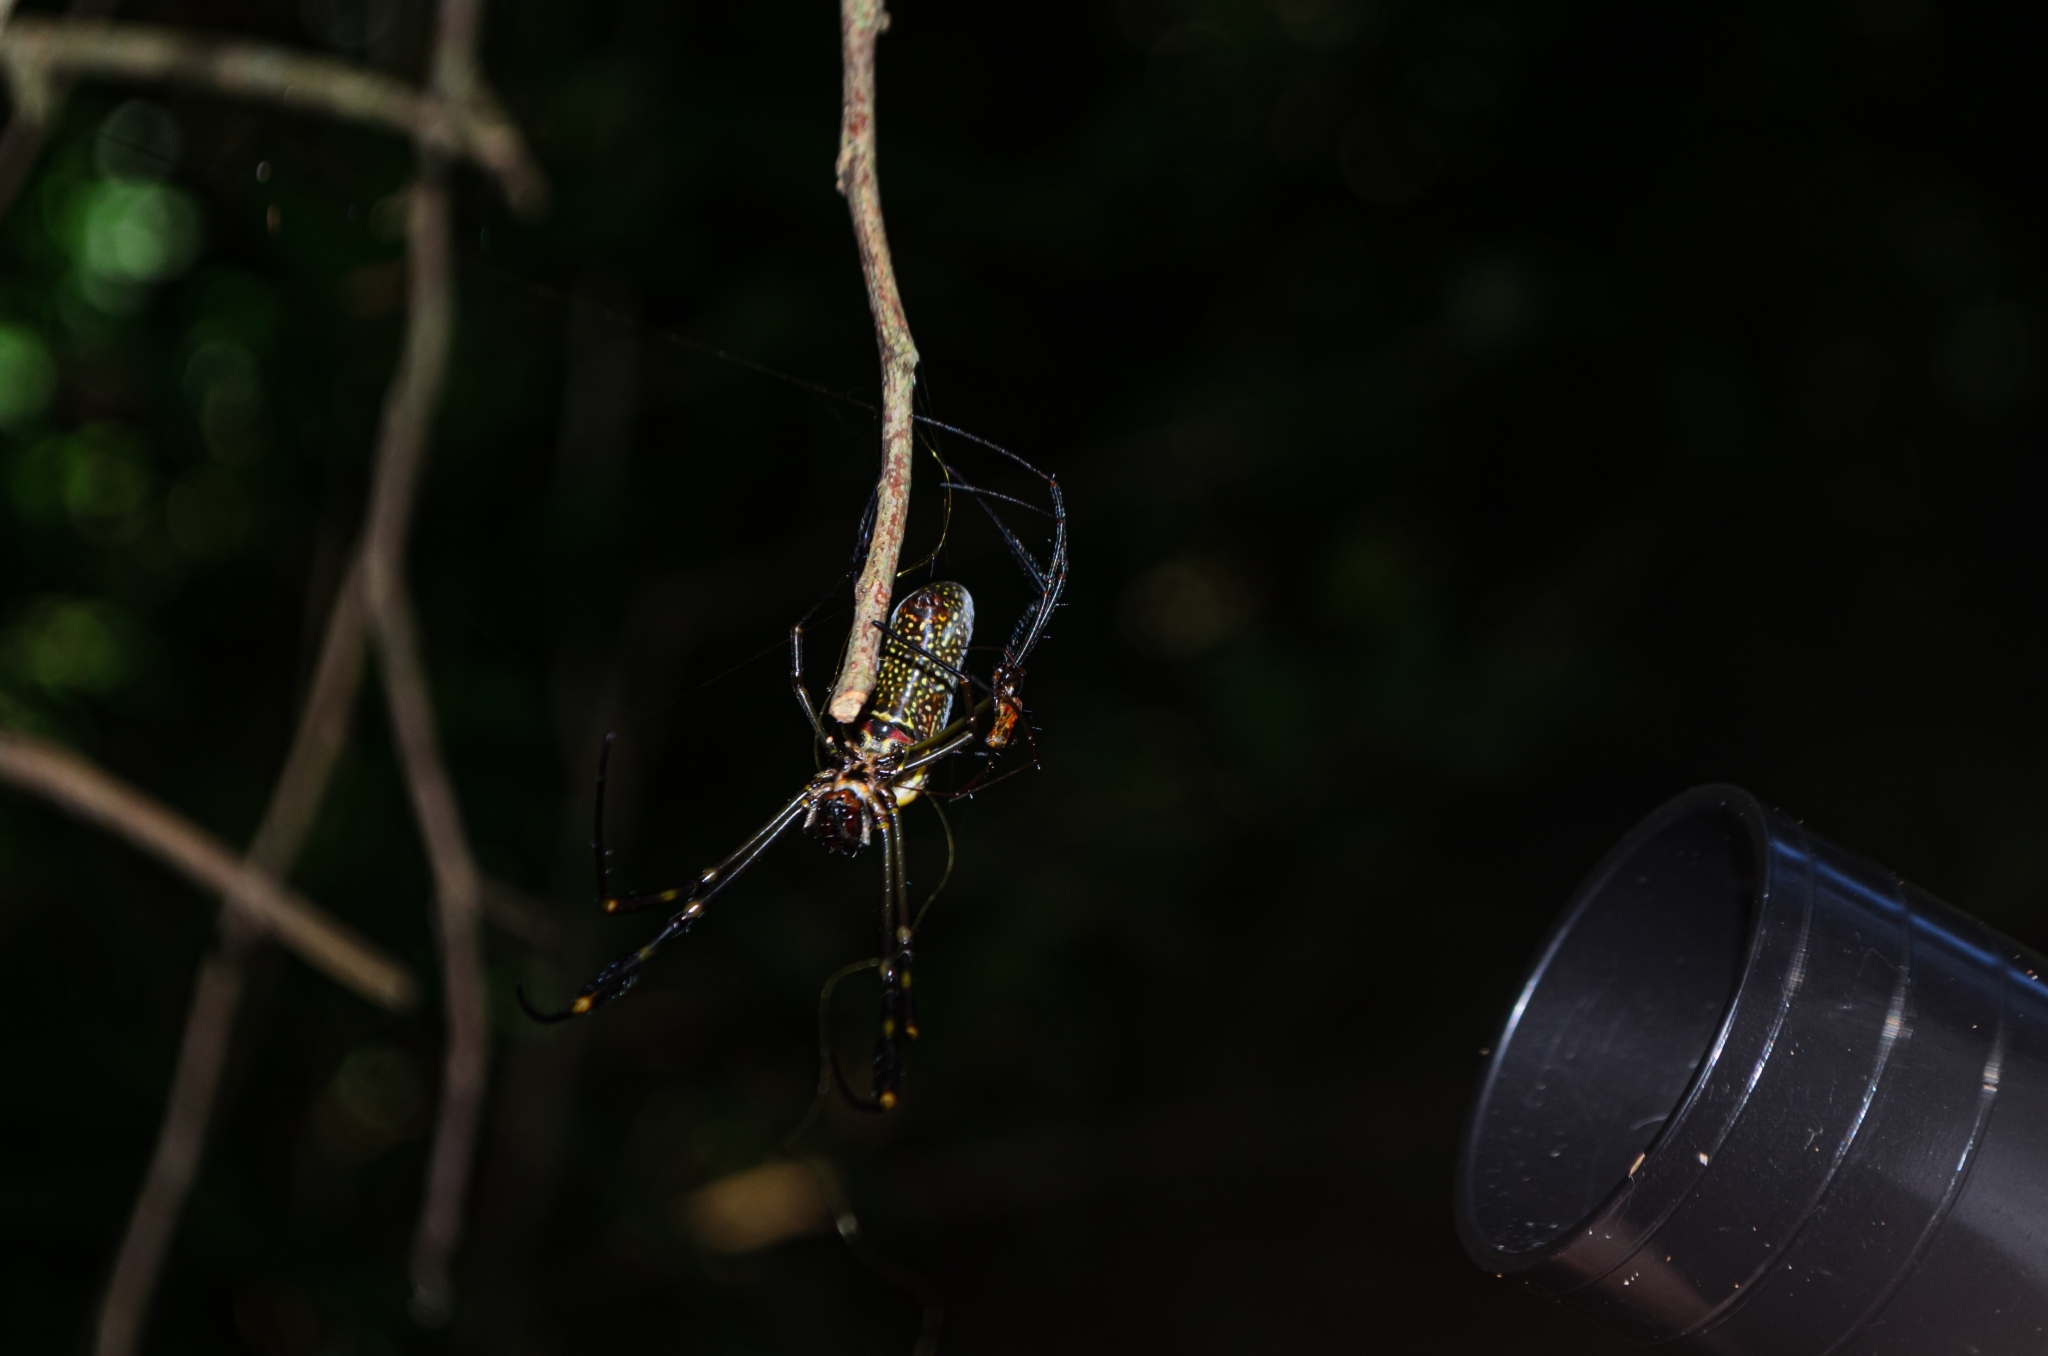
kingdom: Animalia
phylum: Arthropoda
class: Arachnida
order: Araneae
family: Araneidae
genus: Trichonephila
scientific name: Trichonephila clavipes
